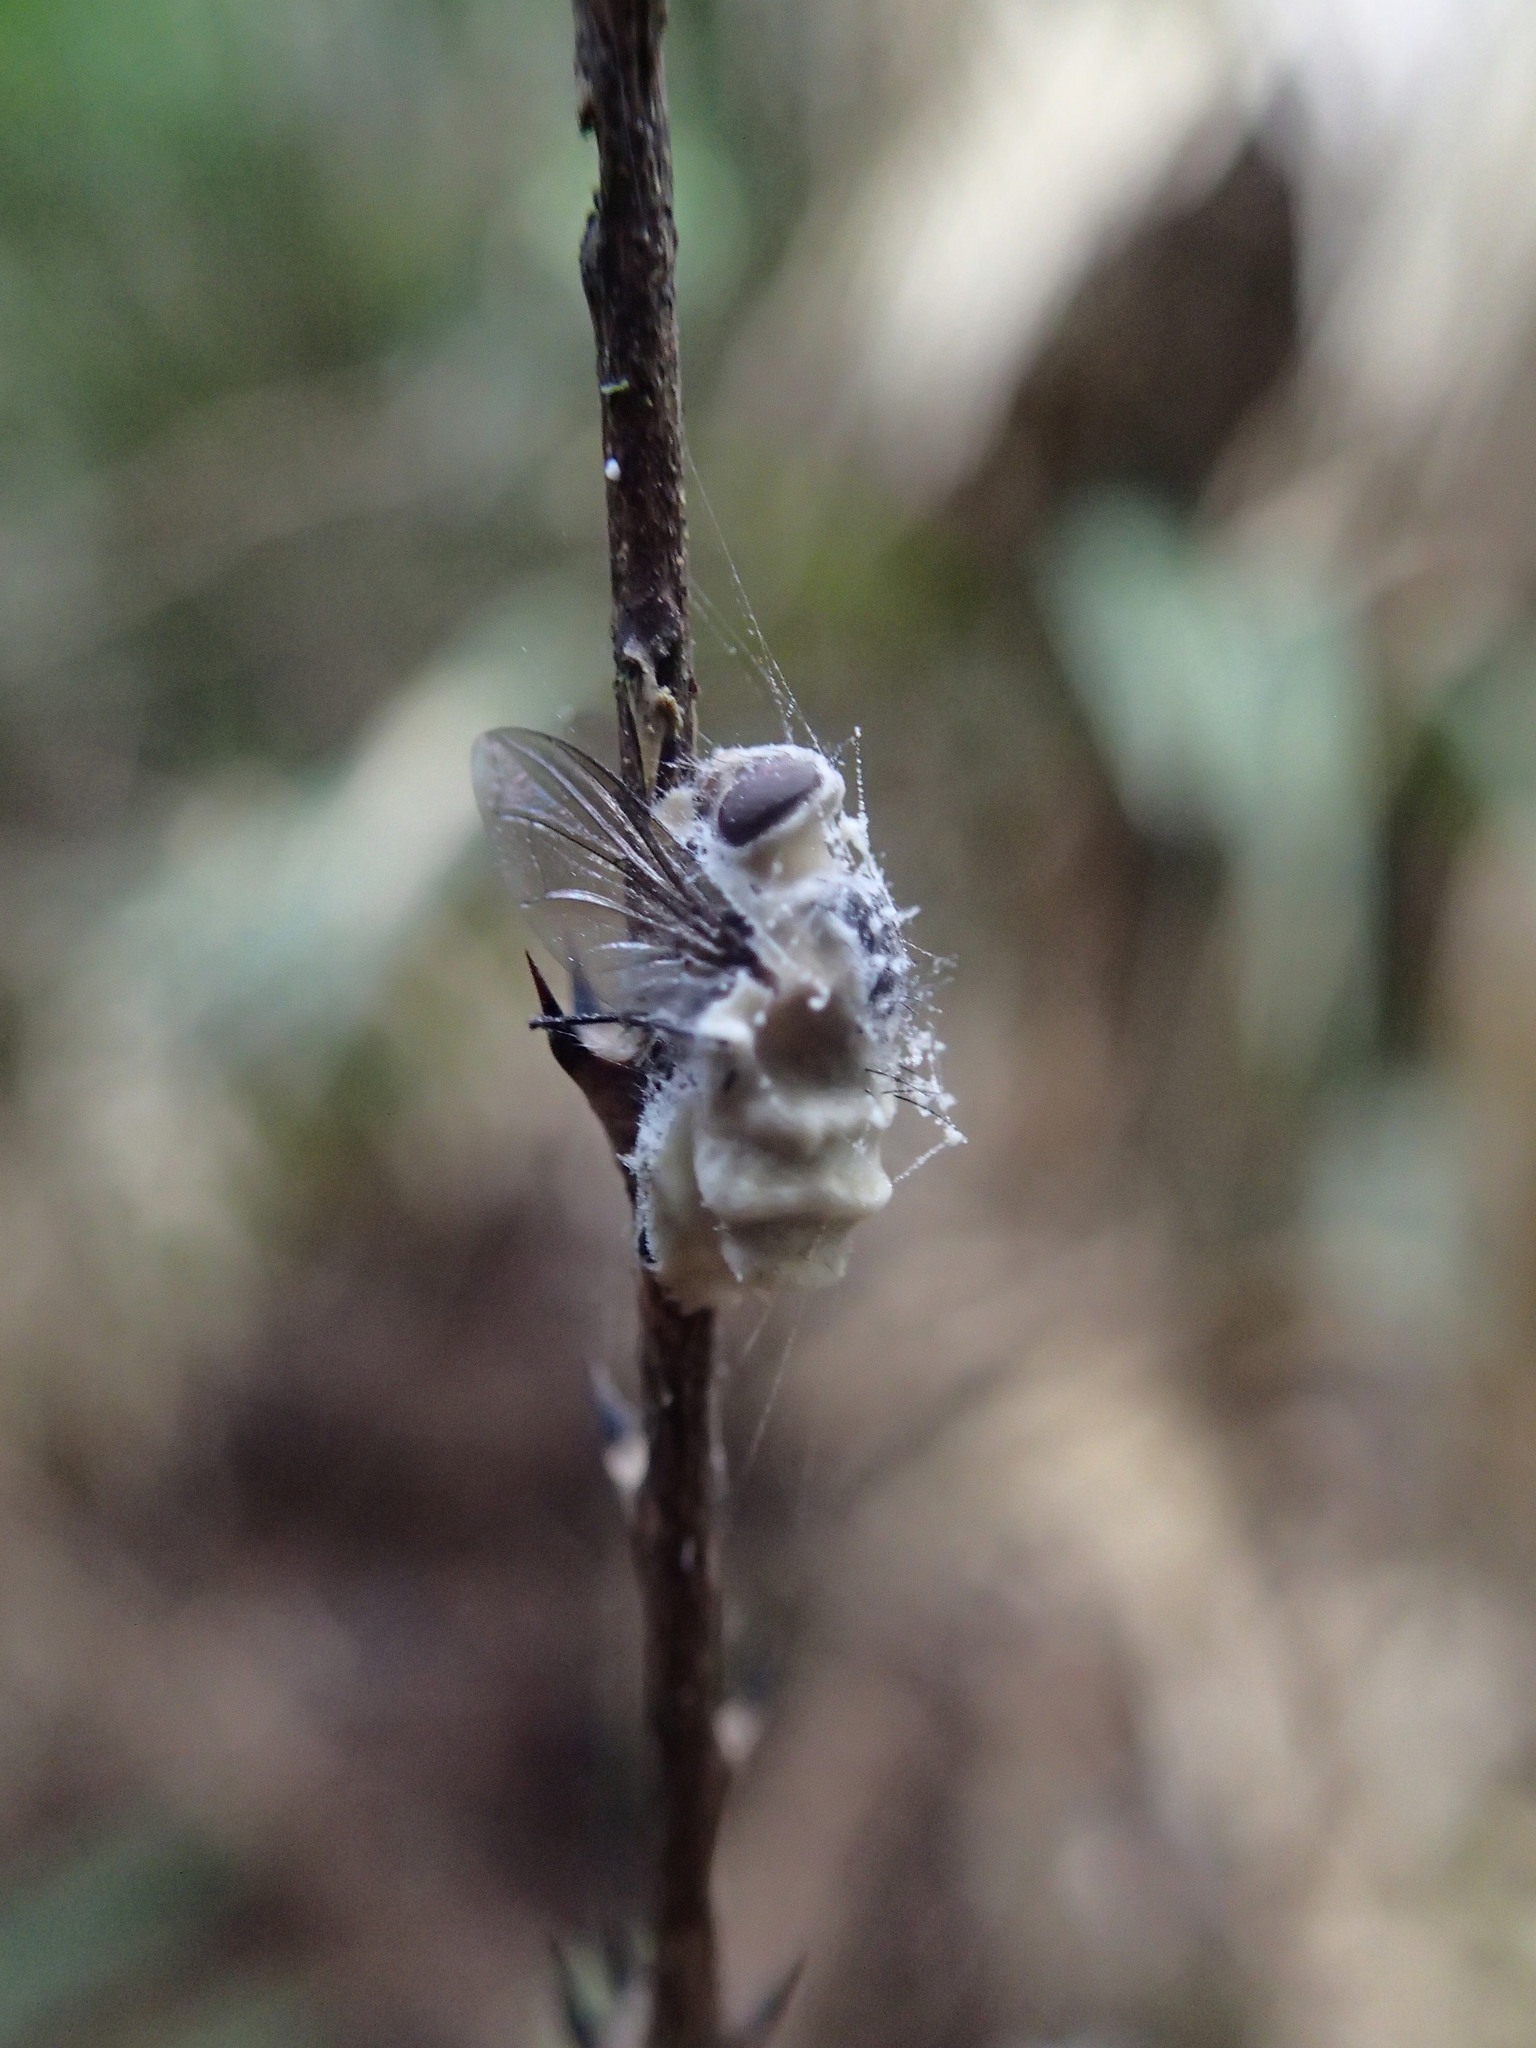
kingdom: Fungi
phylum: Entomophthoromycota
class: Entomophthoromycetes
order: Entomophthorales
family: Entomophthoraceae
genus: Entomophthora
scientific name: Entomophthora
